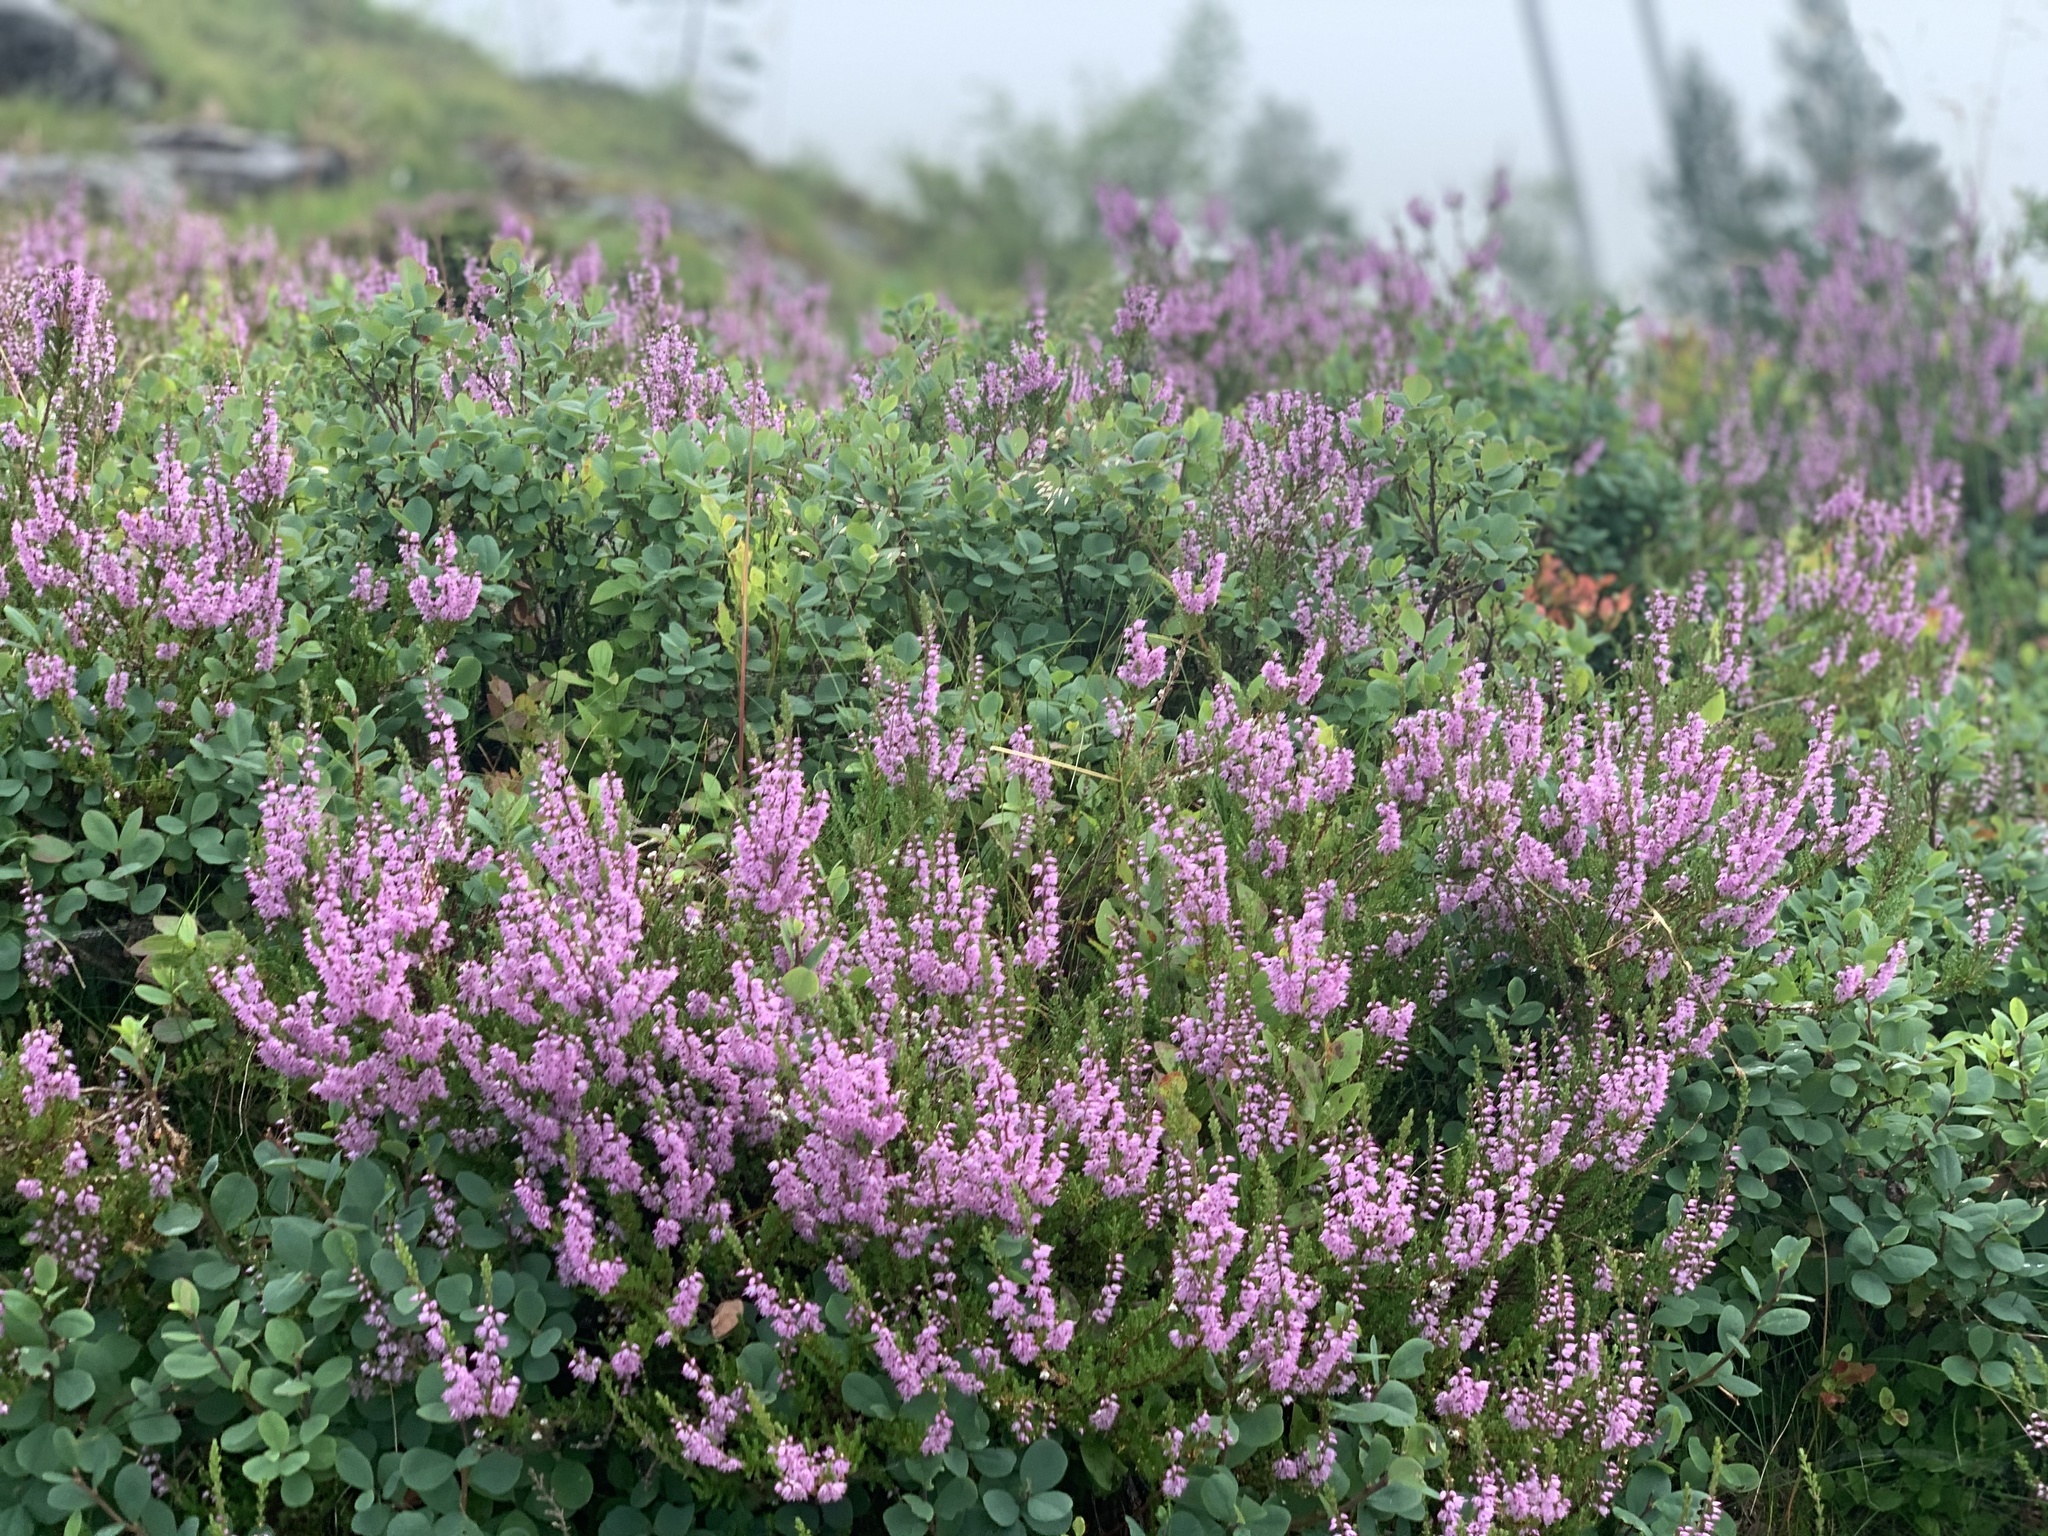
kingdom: Plantae
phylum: Tracheophyta
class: Magnoliopsida
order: Ericales
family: Ericaceae
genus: Calluna
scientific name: Calluna vulgaris
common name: Heather
